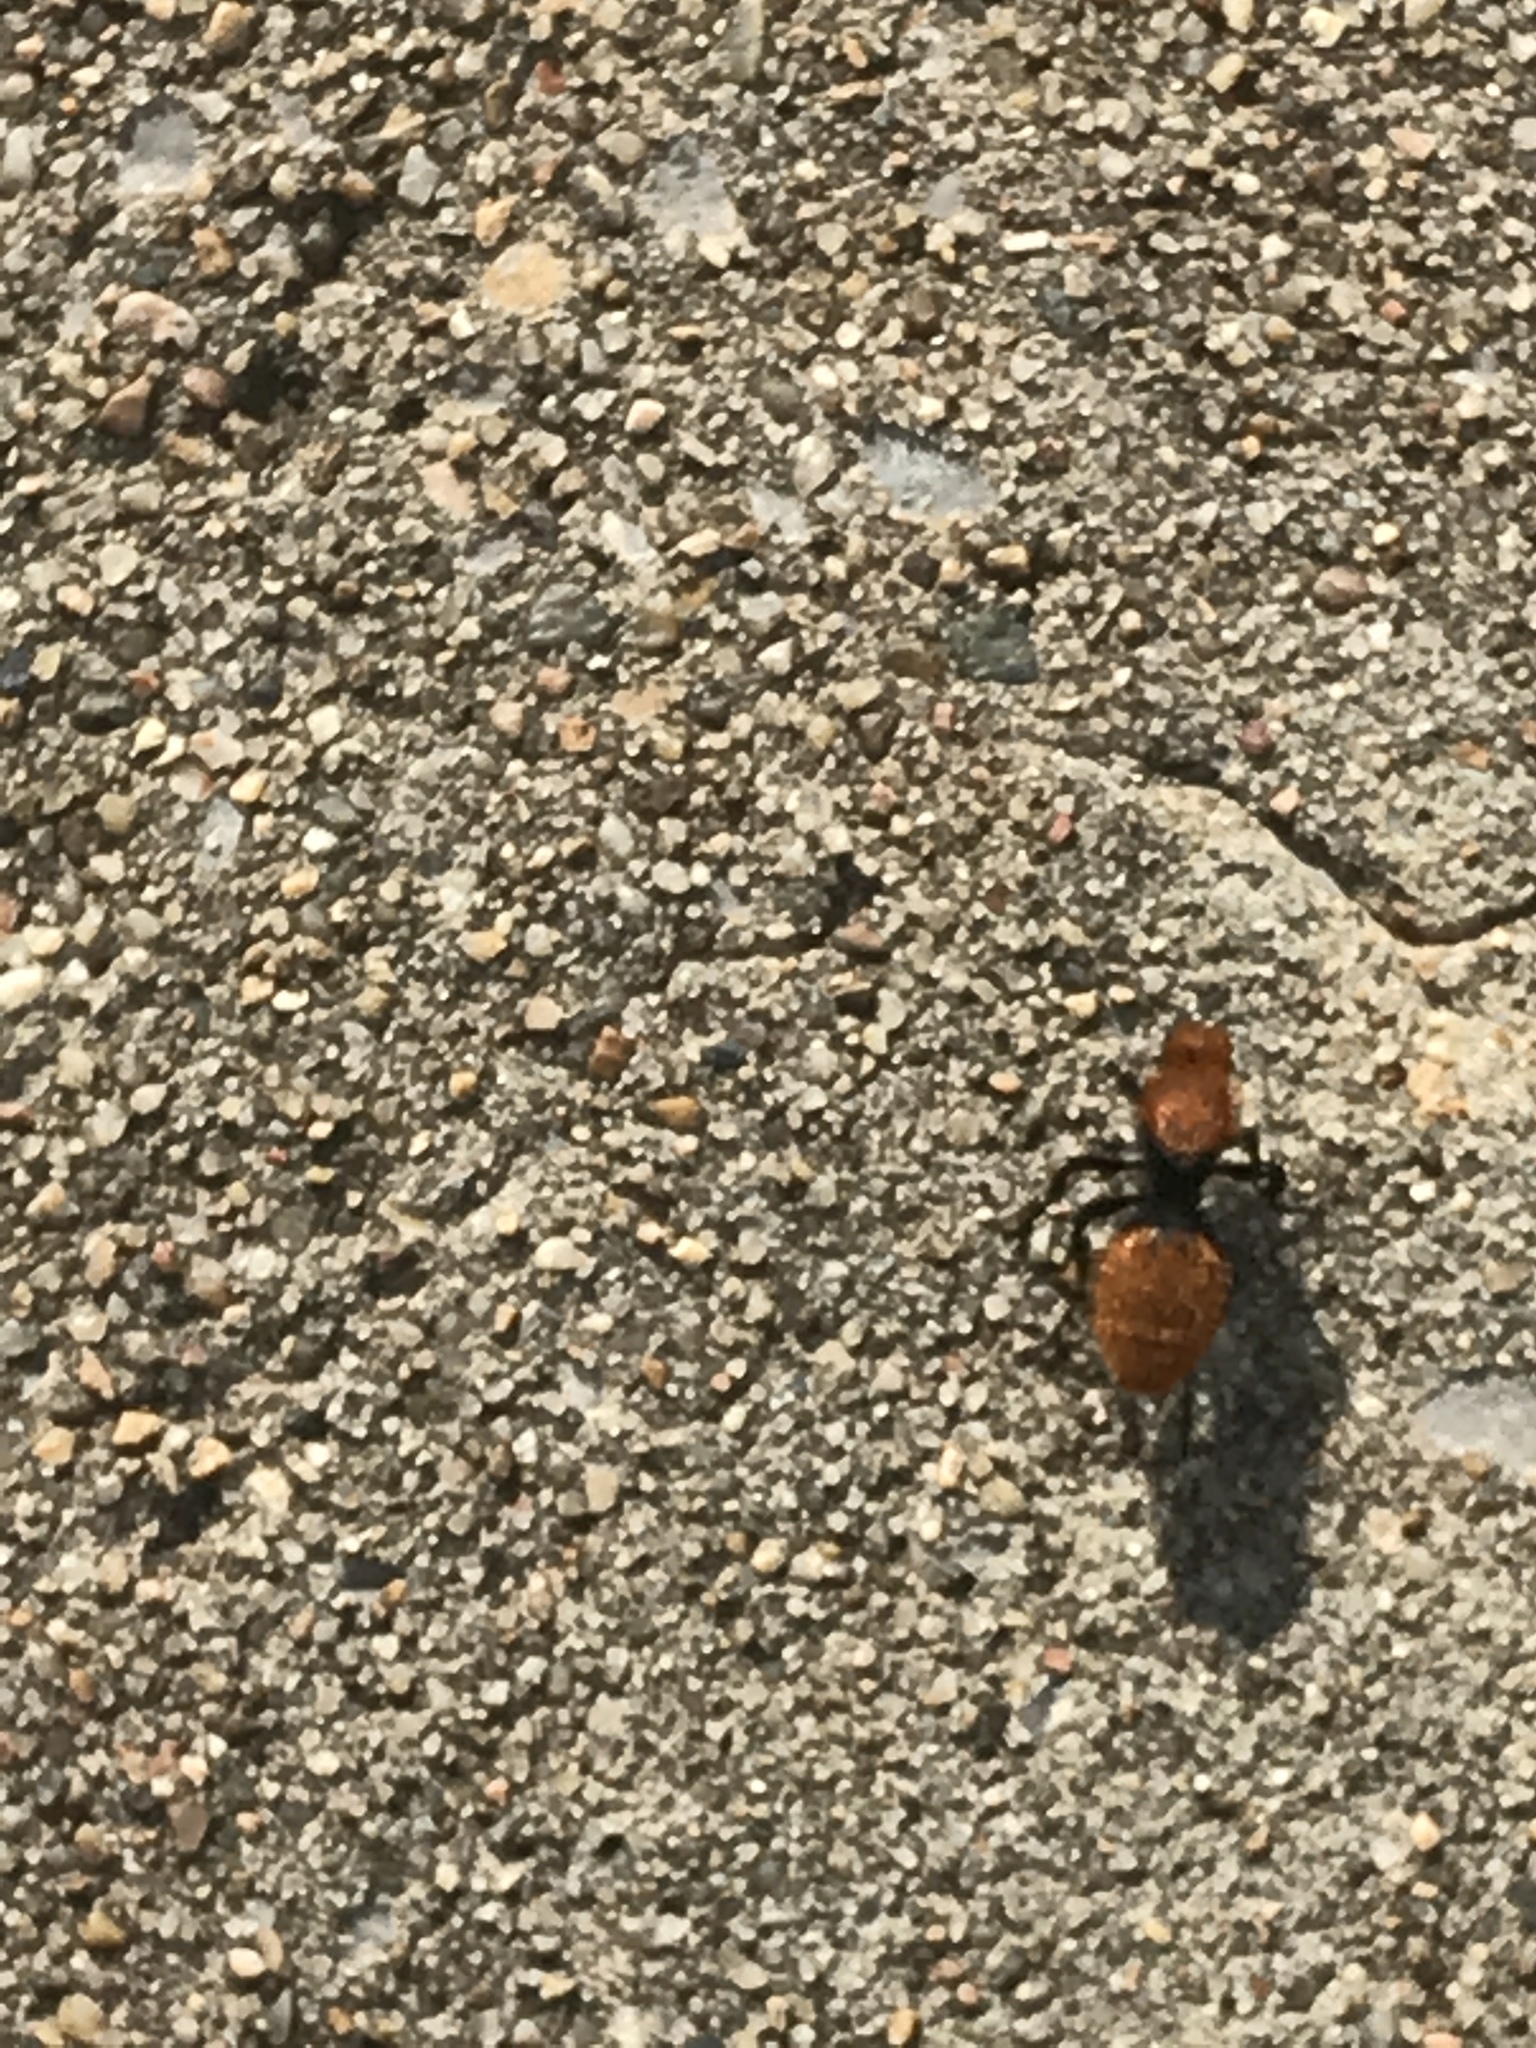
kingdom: Animalia
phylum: Arthropoda
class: Insecta
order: Hymenoptera
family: Mutillidae
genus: Dasymutilla
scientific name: Dasymutilla
